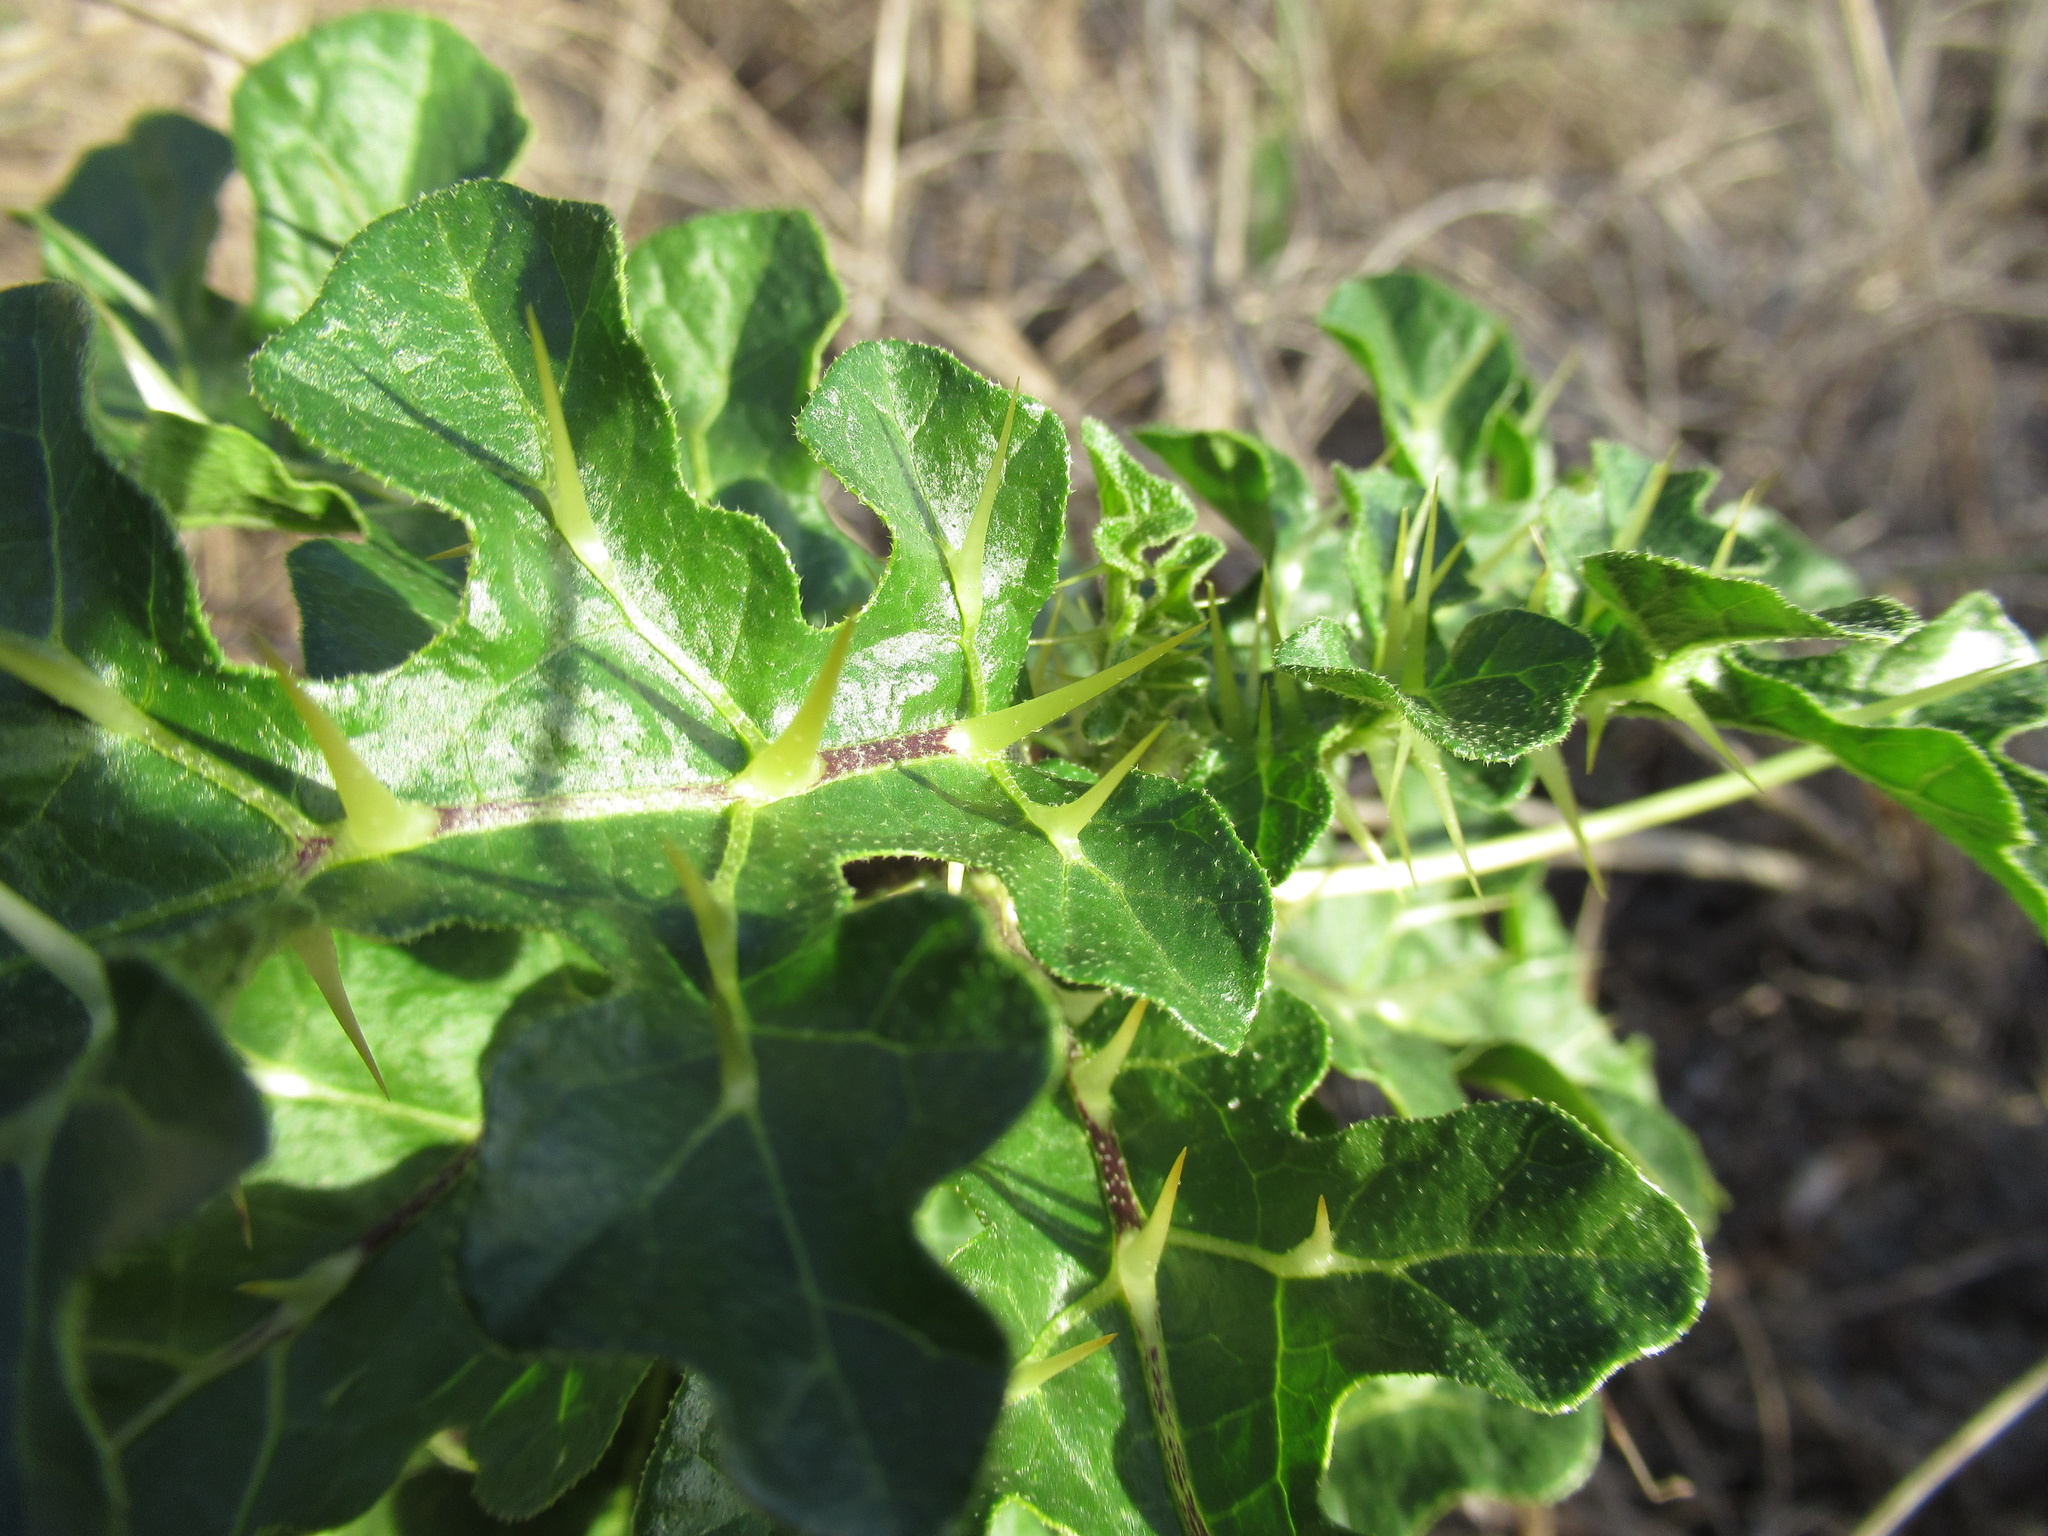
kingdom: Plantae
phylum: Tracheophyta
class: Magnoliopsida
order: Solanales
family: Solanaceae
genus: Solanum
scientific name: Solanum linnaeanum
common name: Nightshade
